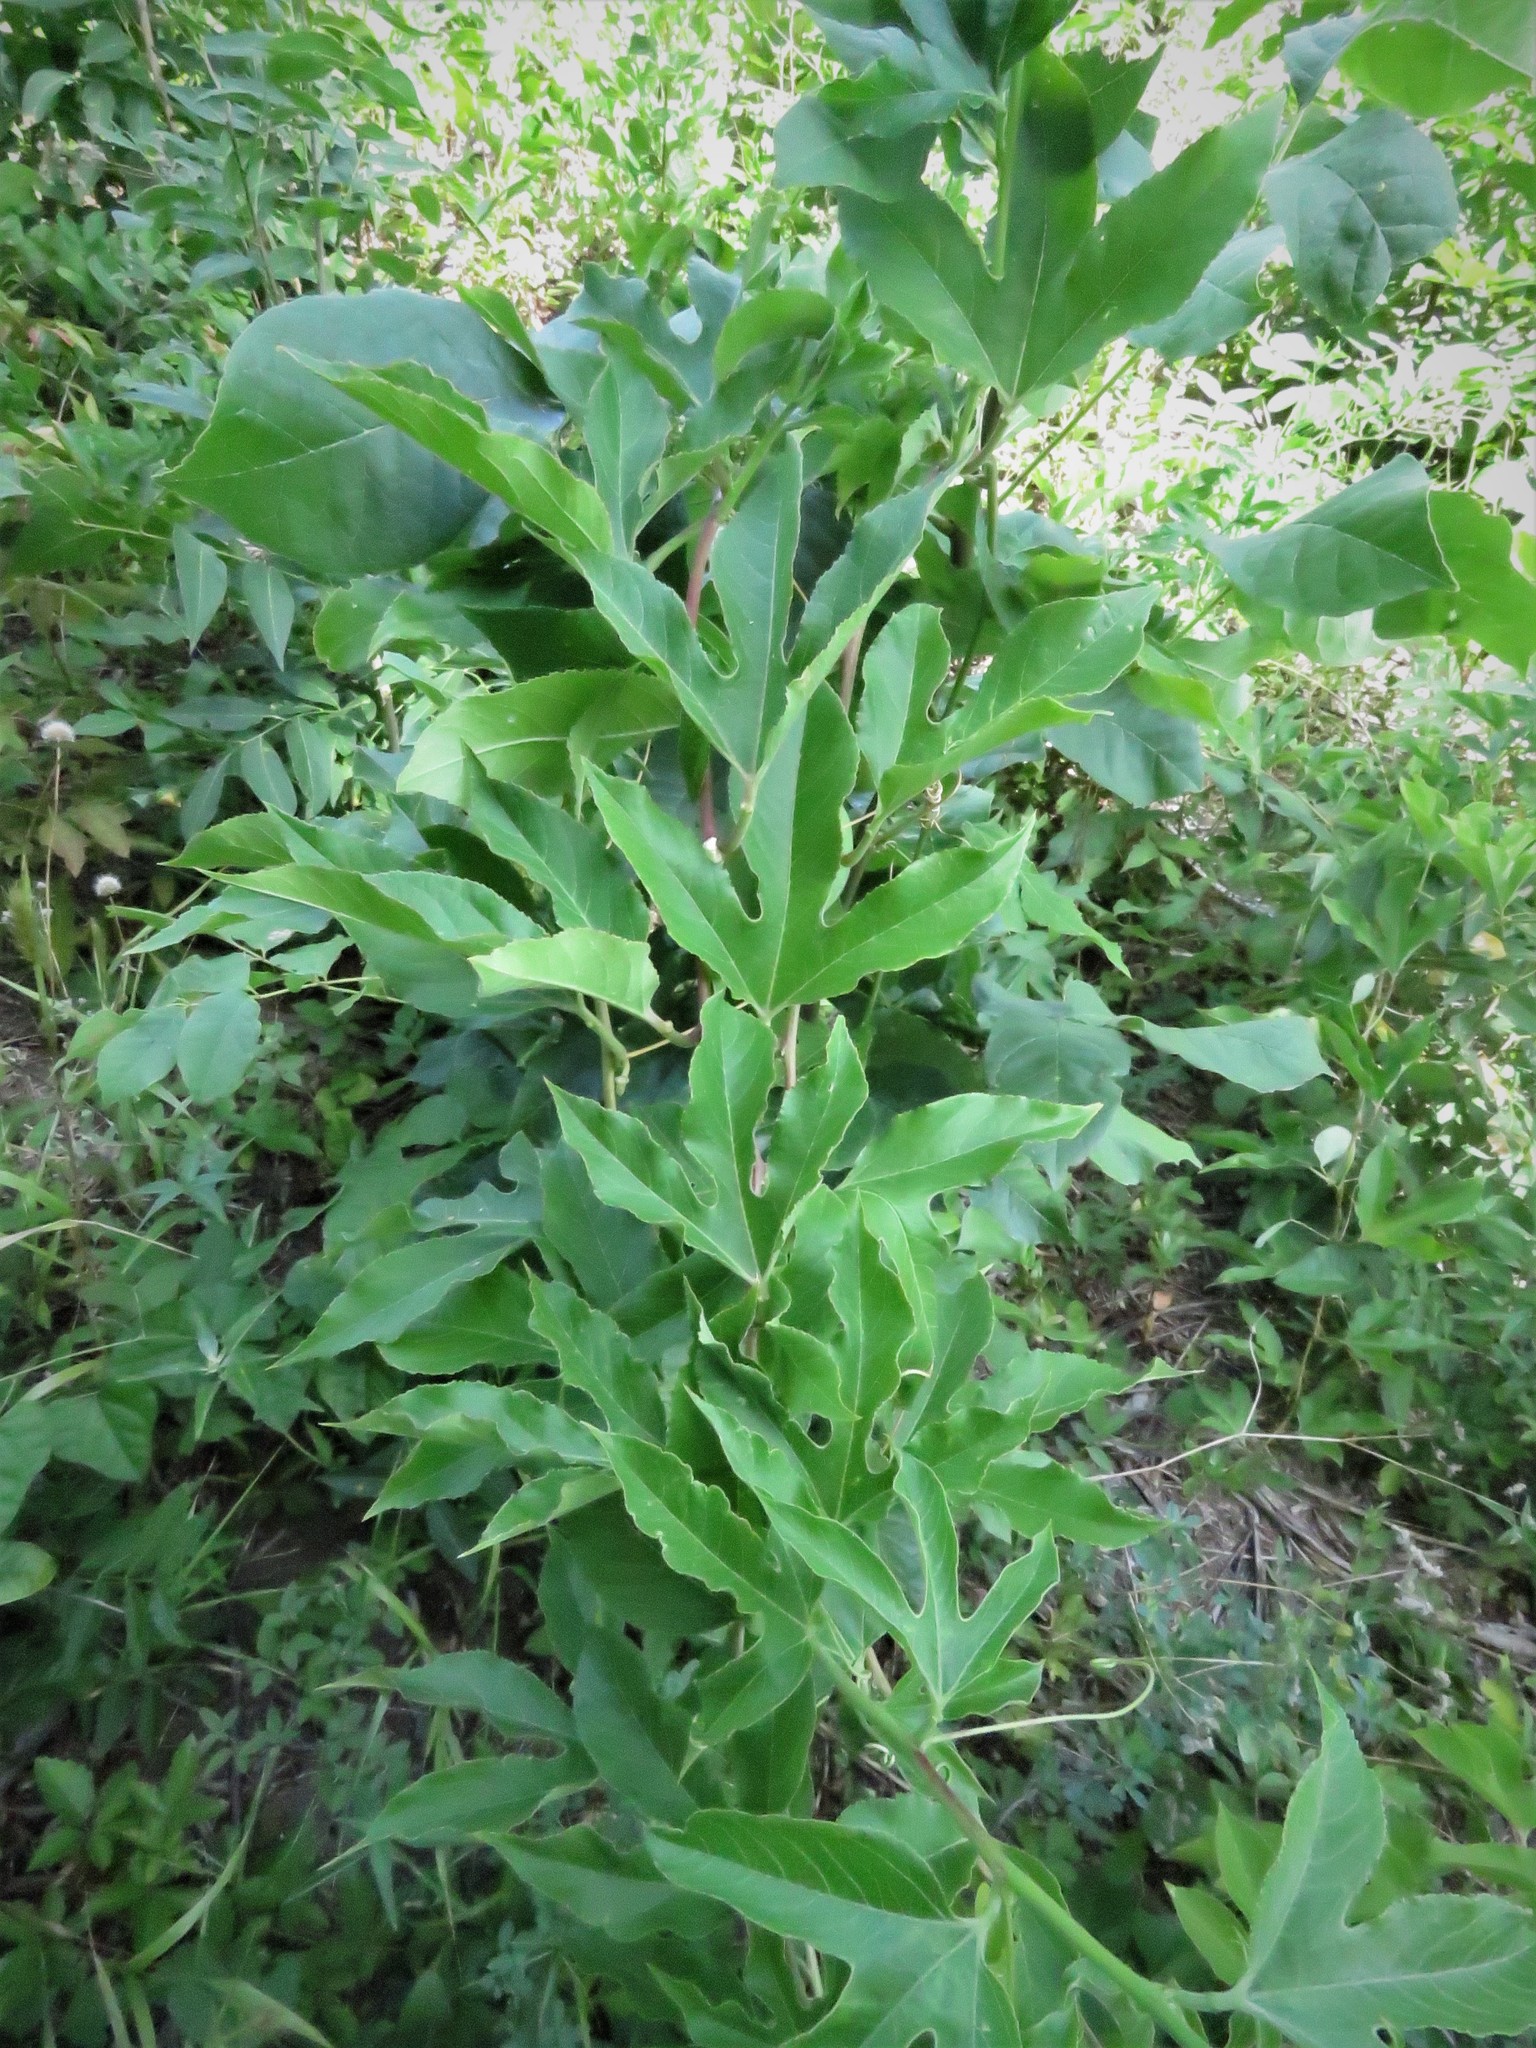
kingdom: Plantae
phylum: Tracheophyta
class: Magnoliopsida
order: Malpighiales
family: Passifloraceae
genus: Passiflora
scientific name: Passiflora incarnata
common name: Apricot-vine
